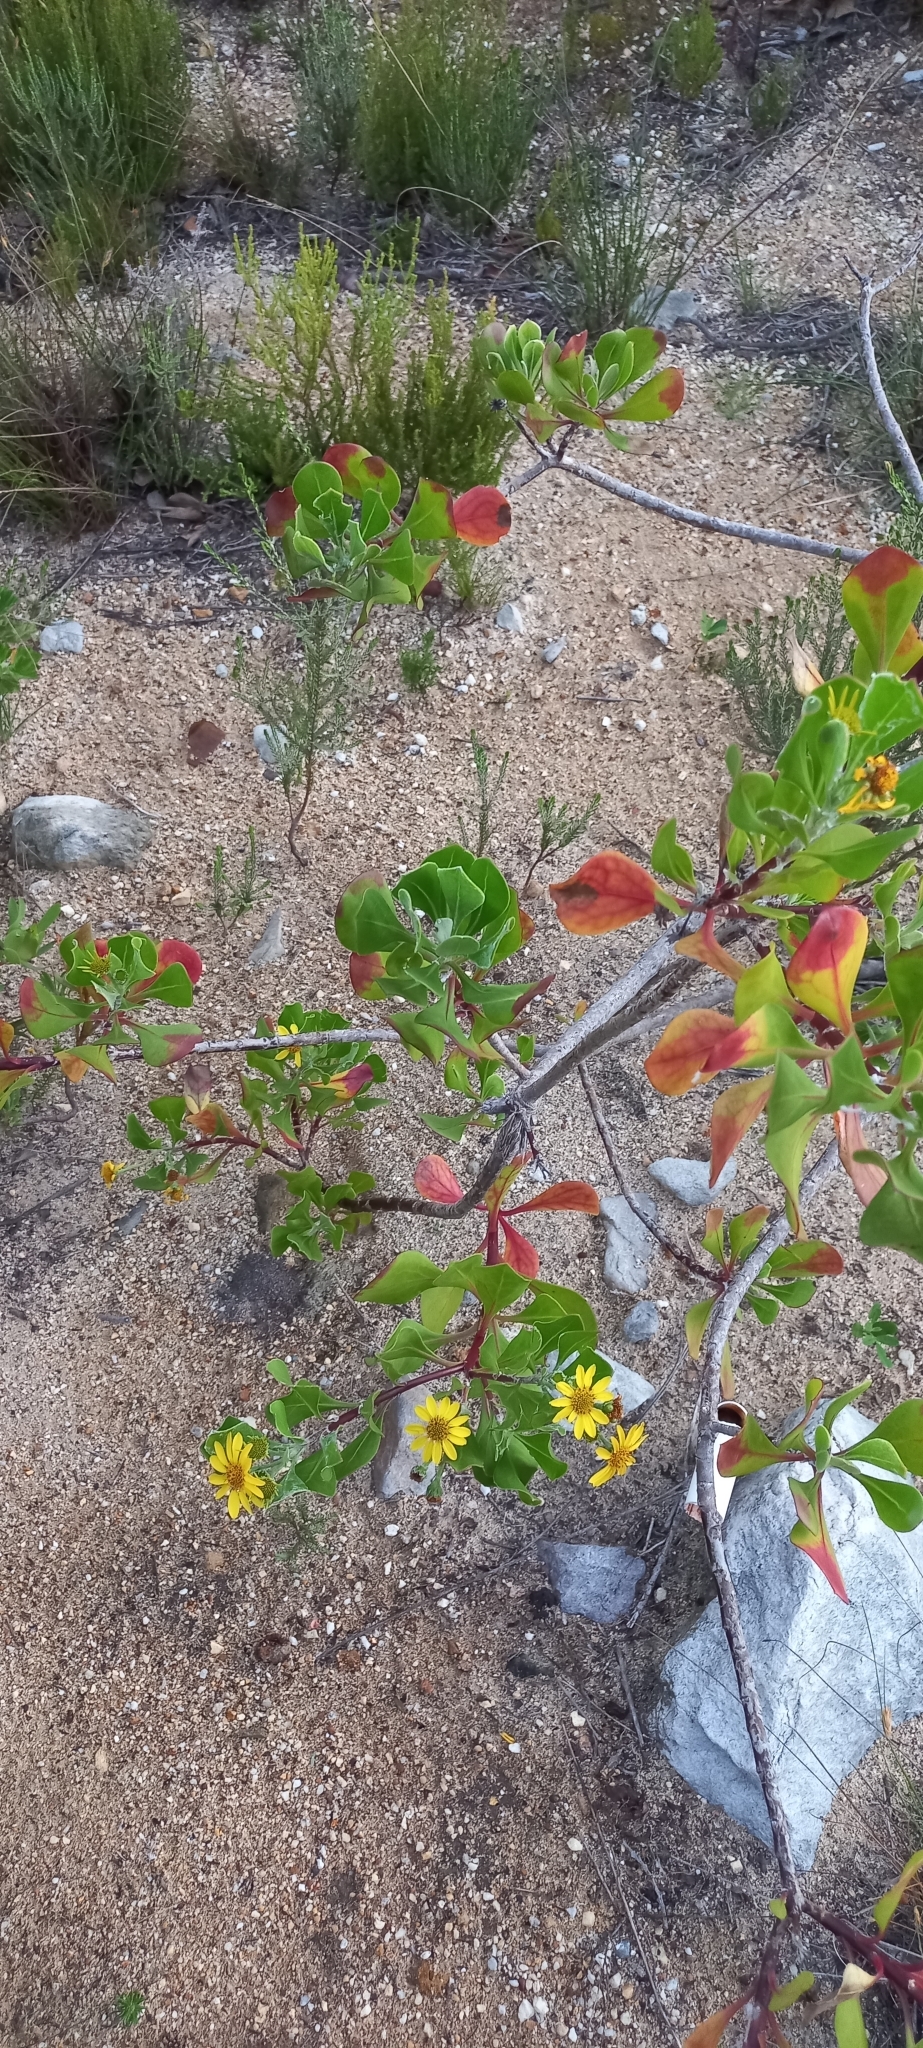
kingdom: Plantae
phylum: Tracheophyta
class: Magnoliopsida
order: Asterales
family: Asteraceae
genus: Osteospermum
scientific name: Osteospermum moniliferum
